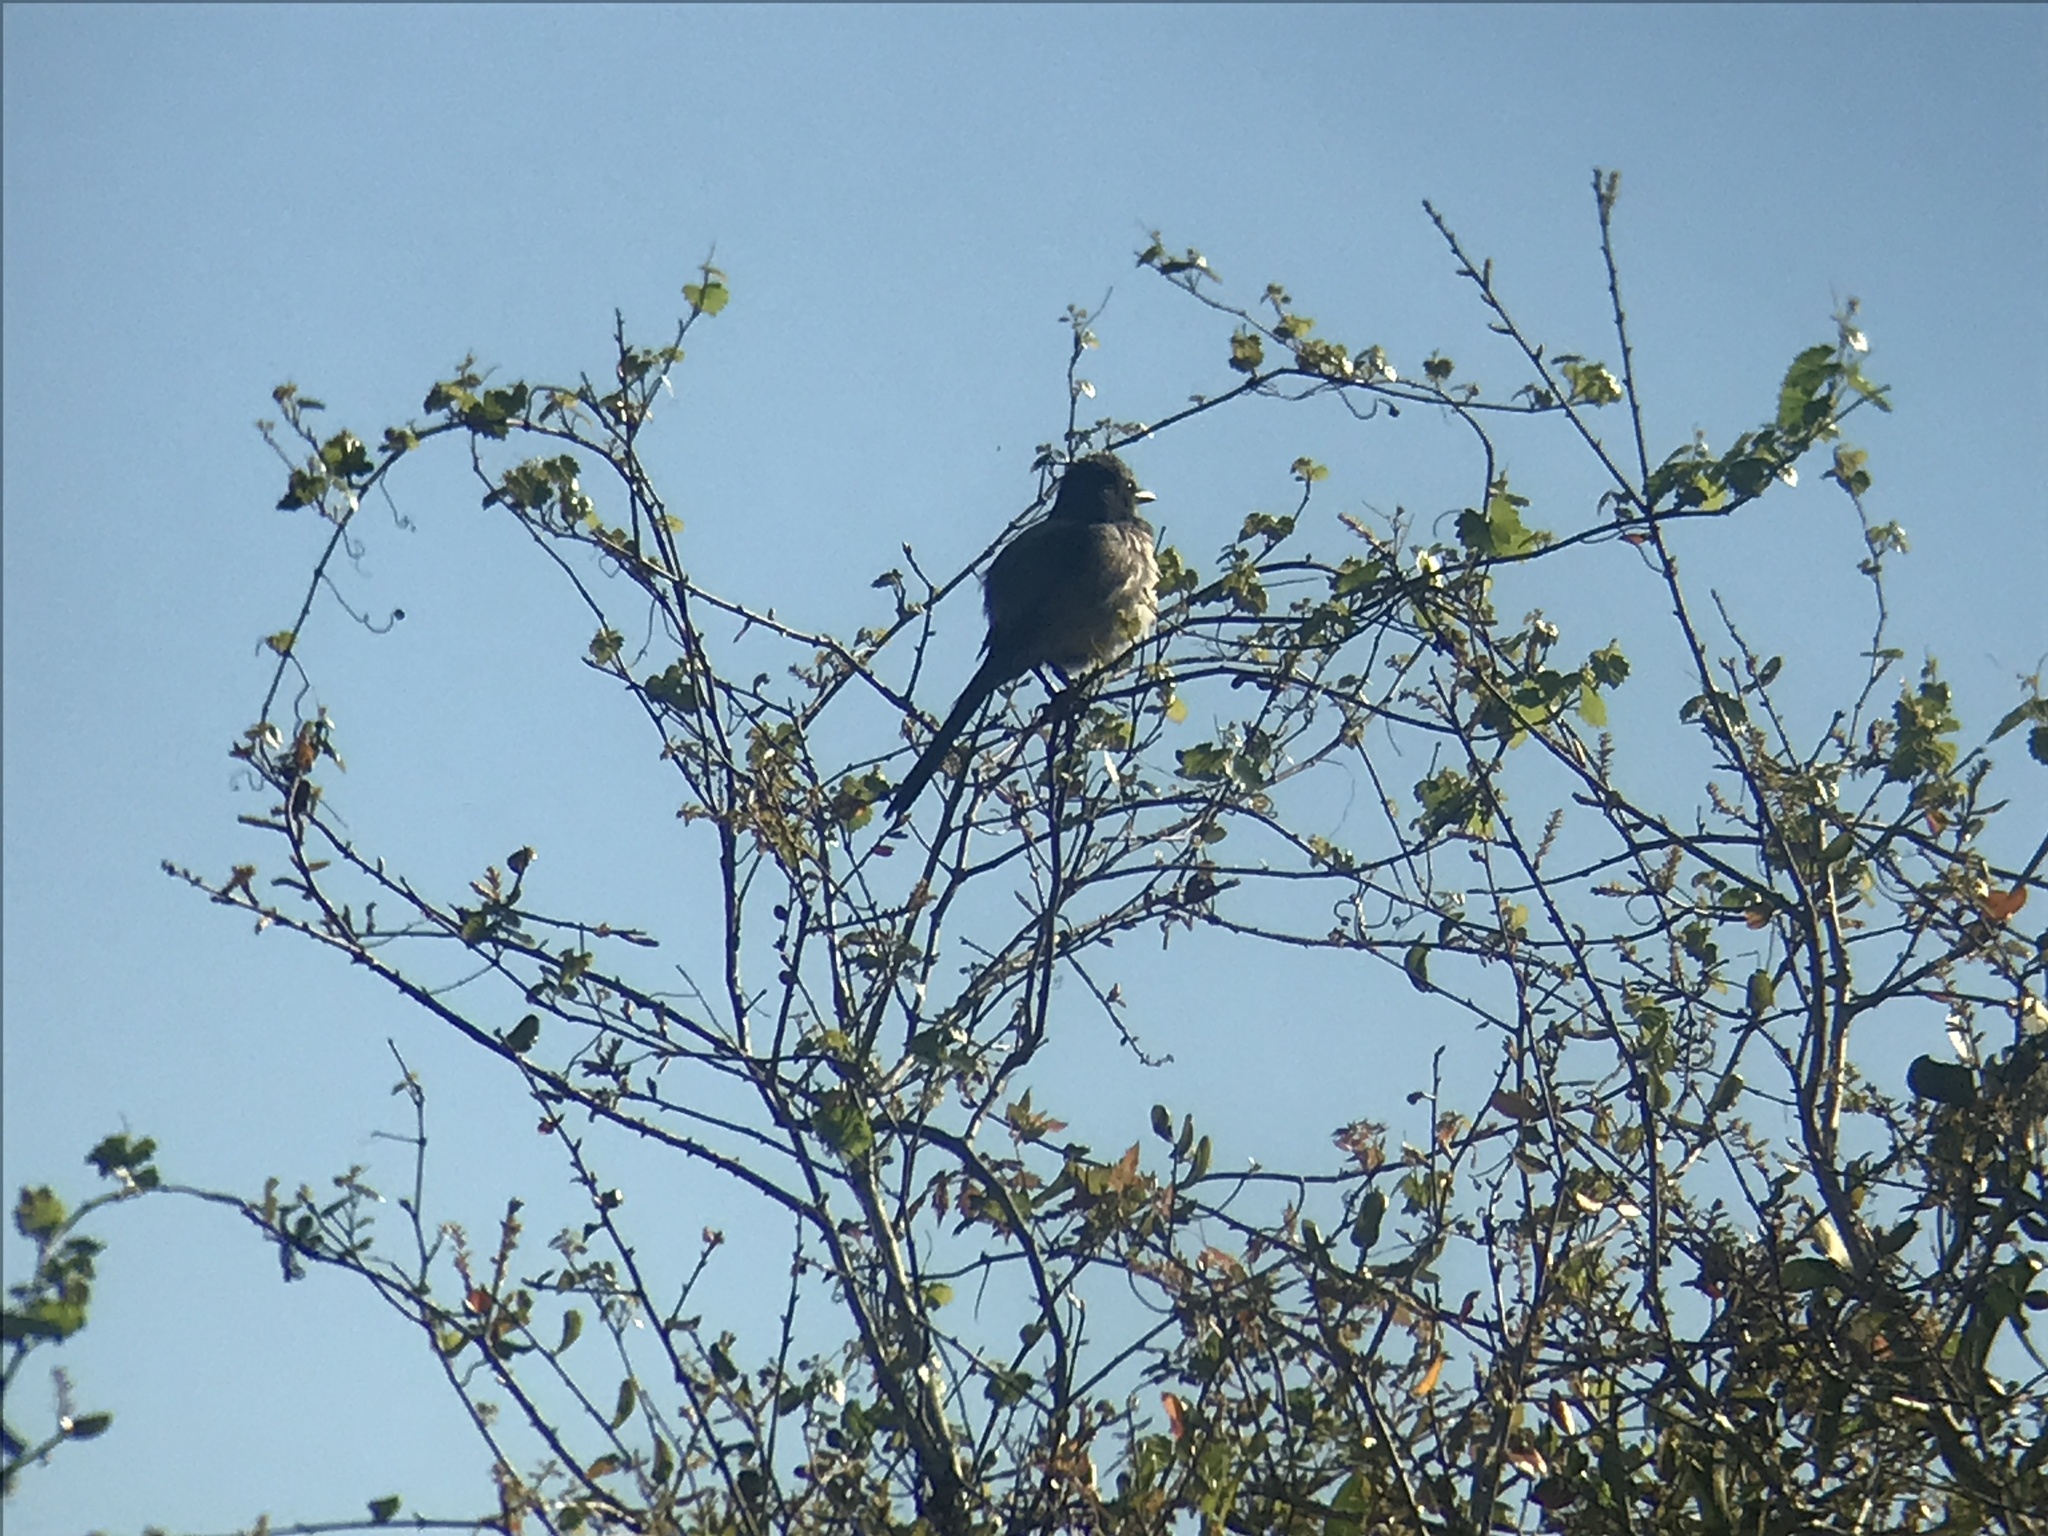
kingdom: Animalia
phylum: Chordata
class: Aves
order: Passeriformes
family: Corvidae
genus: Aphelocoma
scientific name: Aphelocoma coerulescens
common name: Florida scrub jay
